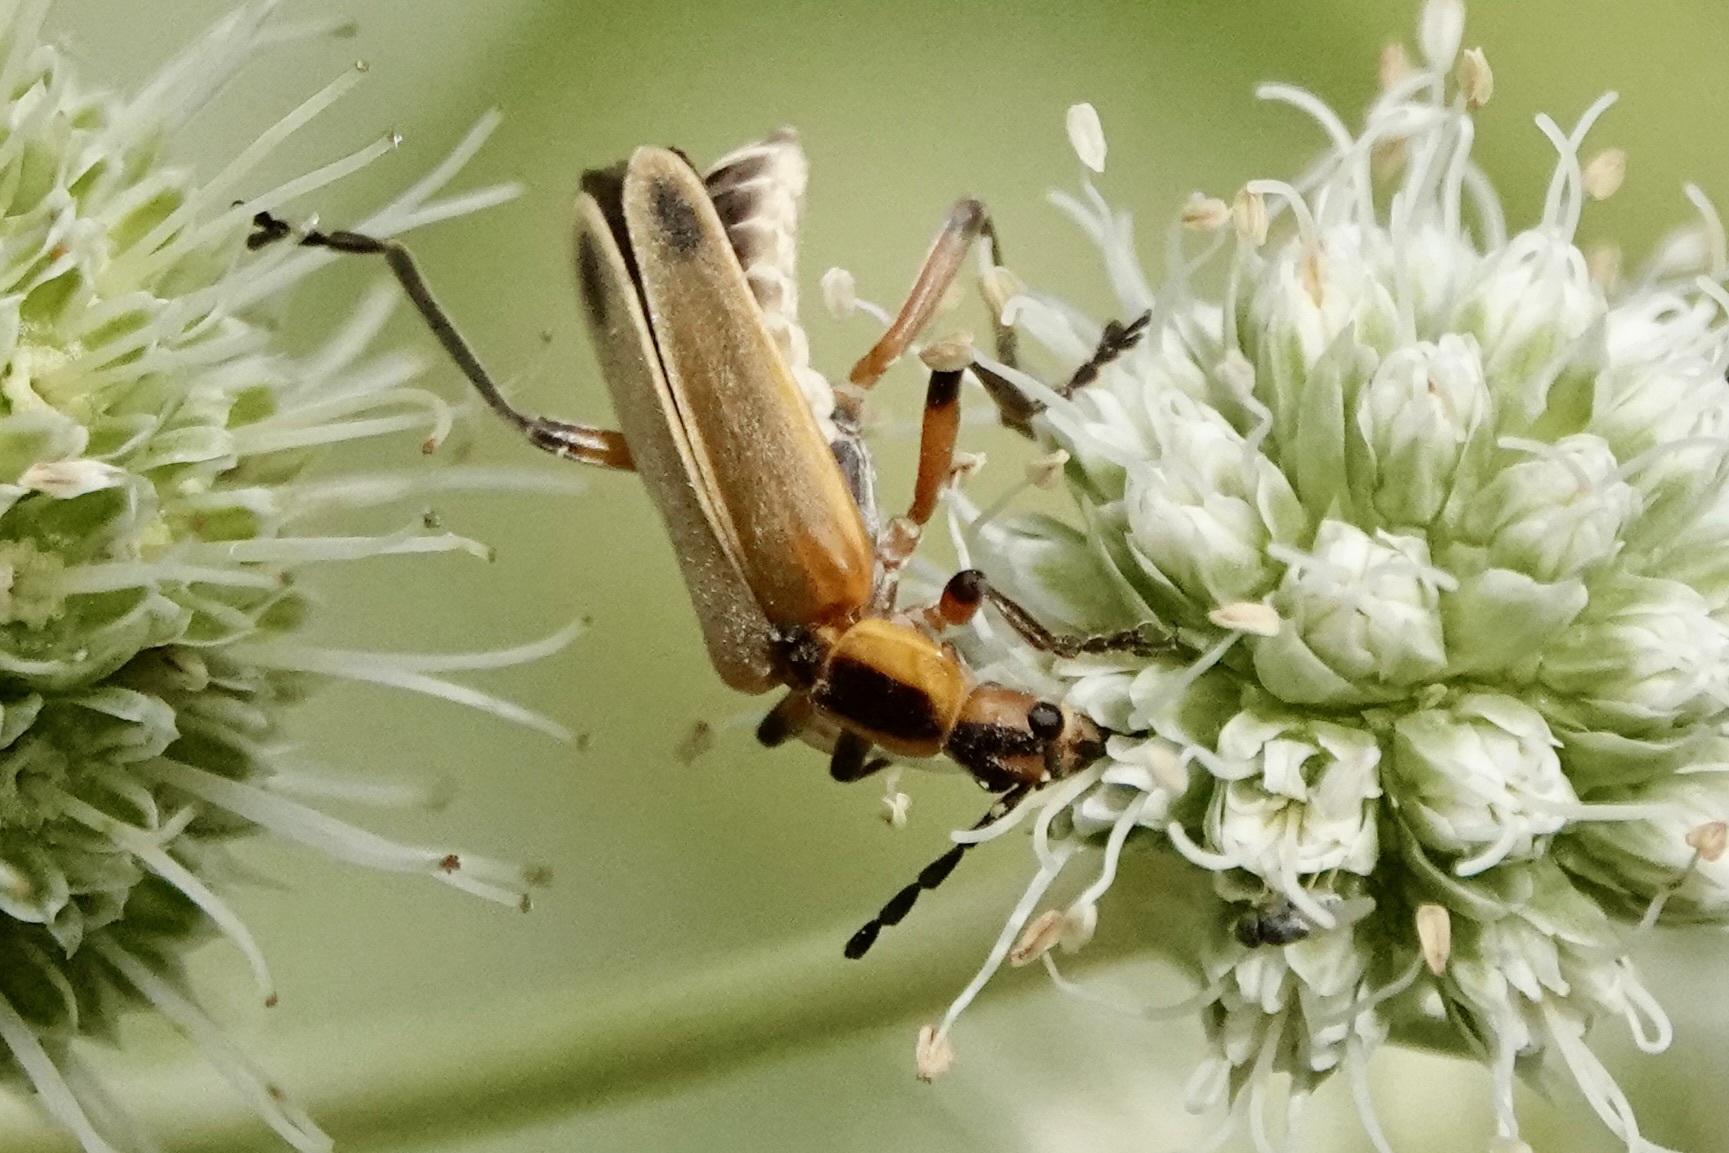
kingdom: Animalia
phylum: Arthropoda
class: Insecta
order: Coleoptera
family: Cantharidae
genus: Chauliognathus
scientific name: Chauliognathus marginatus
